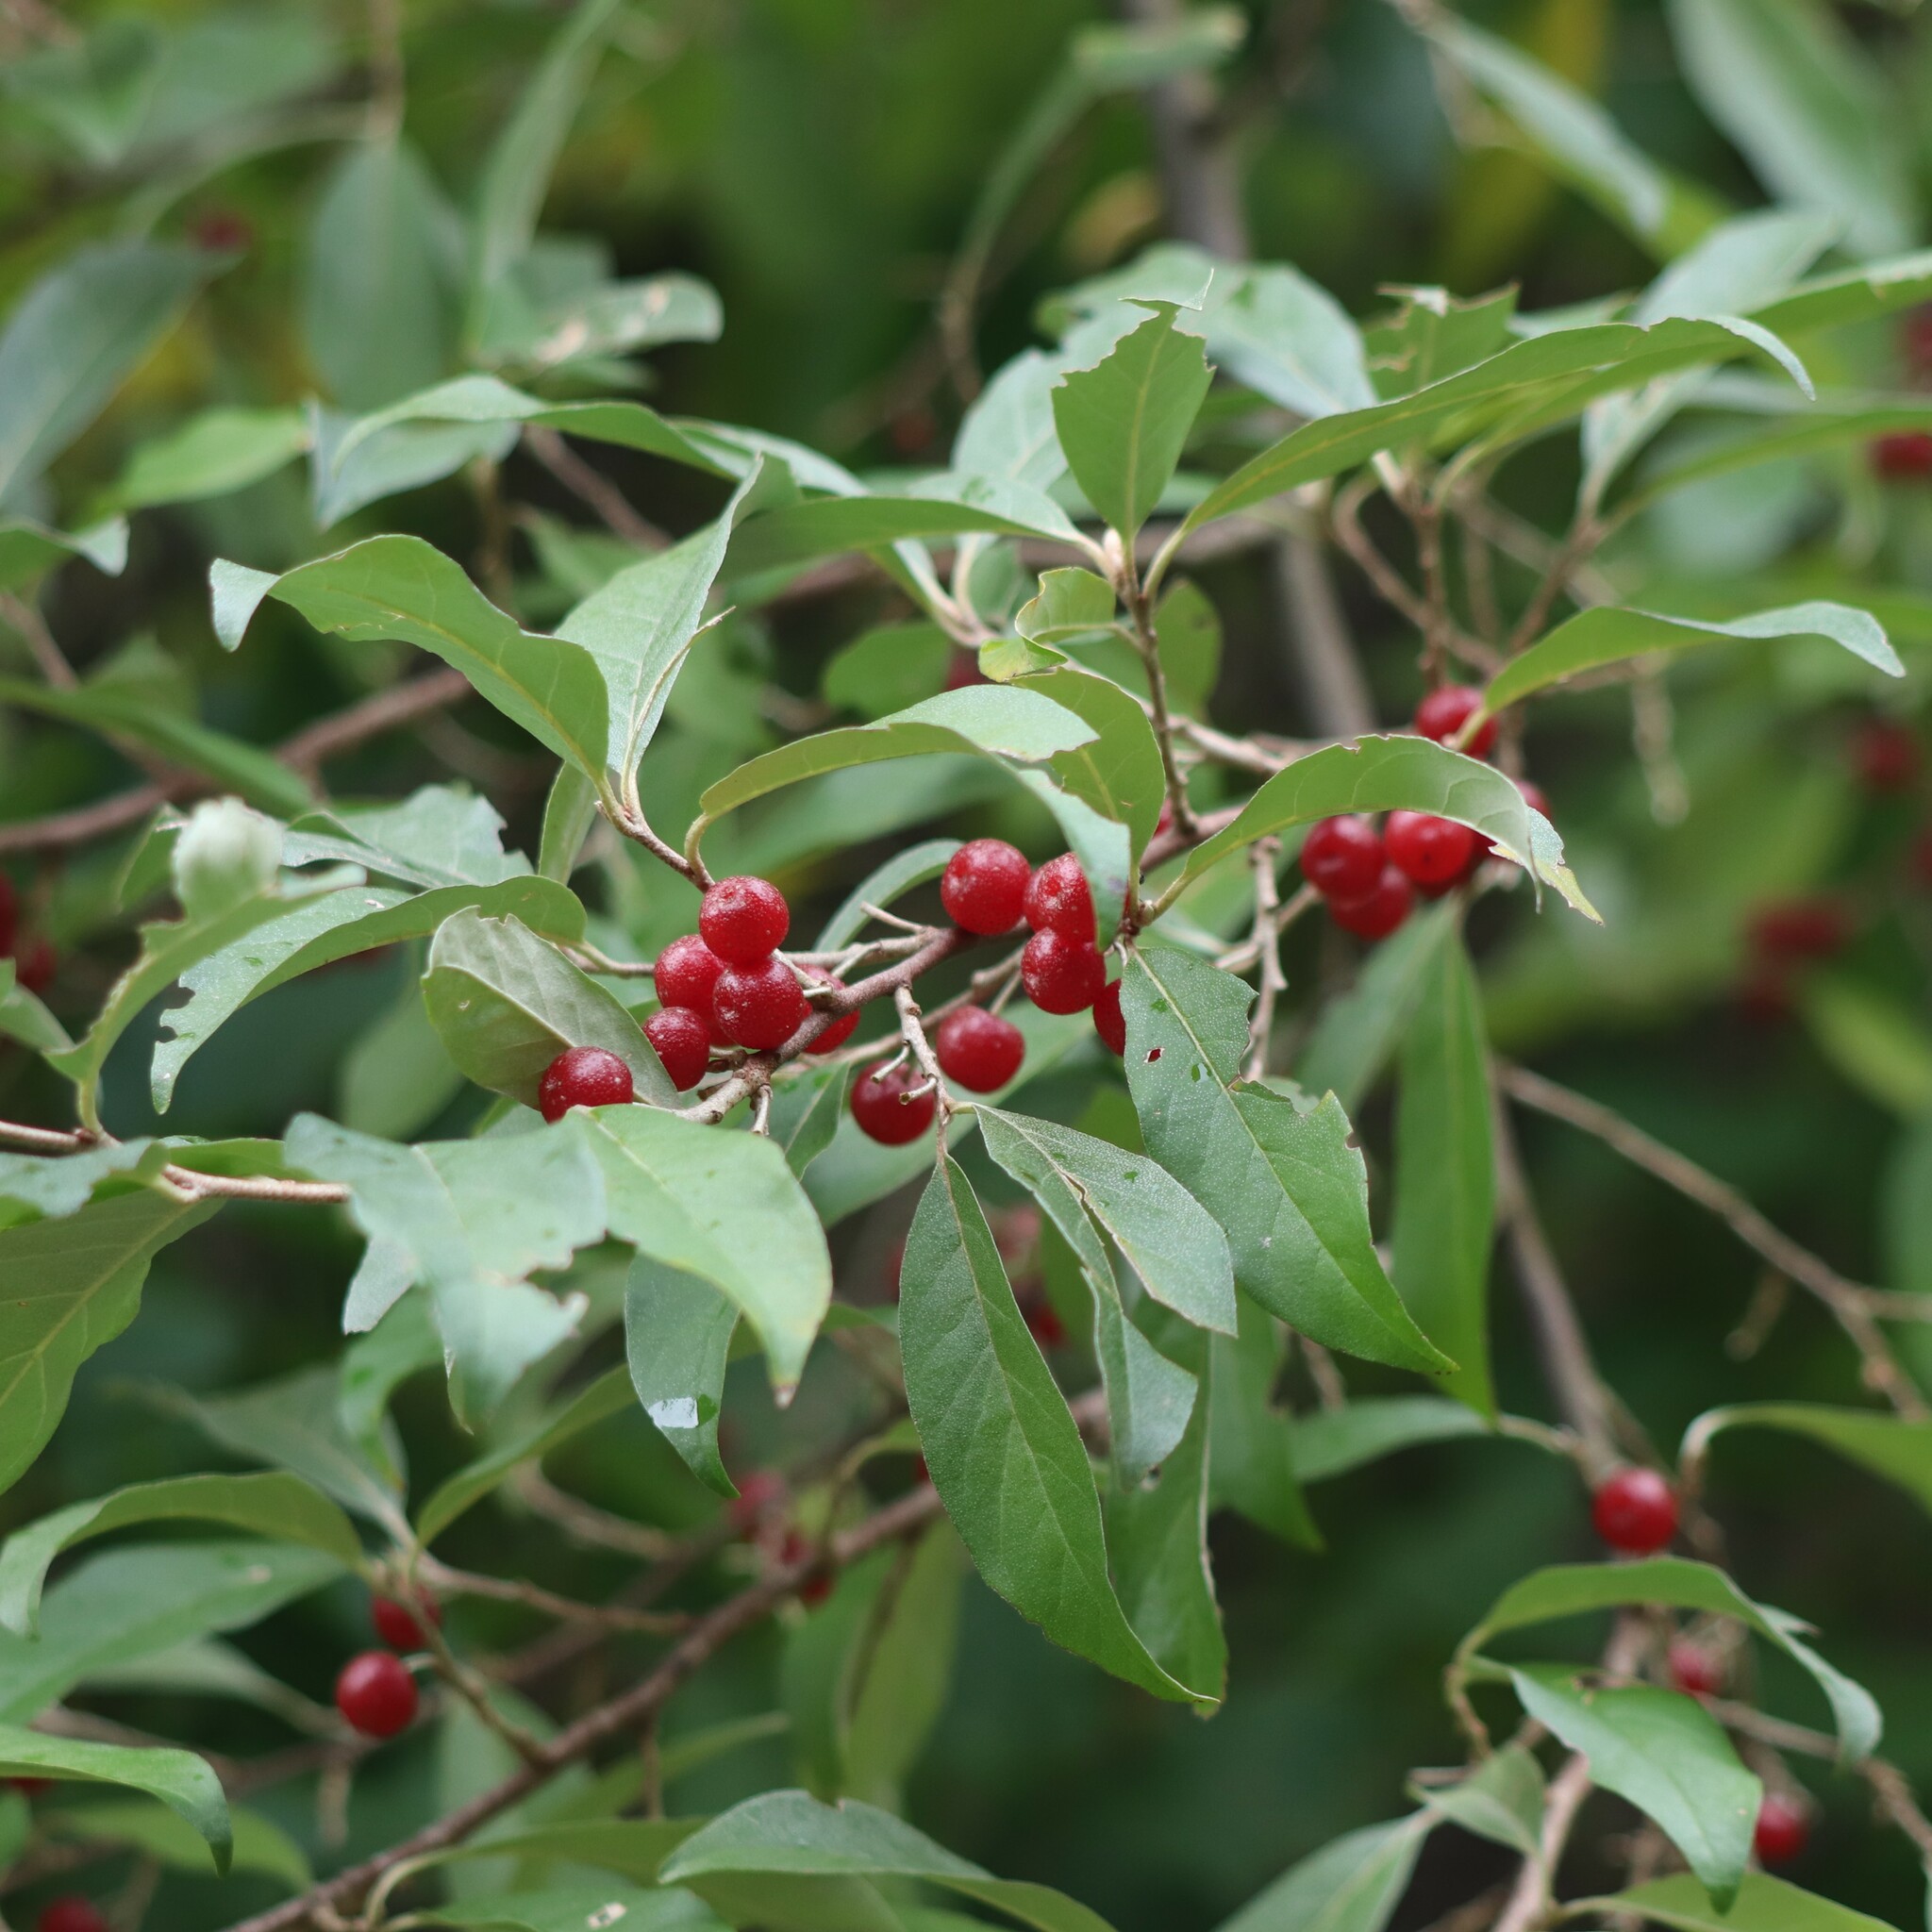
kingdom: Plantae
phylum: Tracheophyta
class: Magnoliopsida
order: Rosales
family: Elaeagnaceae
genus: Elaeagnus
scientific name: Elaeagnus umbellata
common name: Autumn olive
